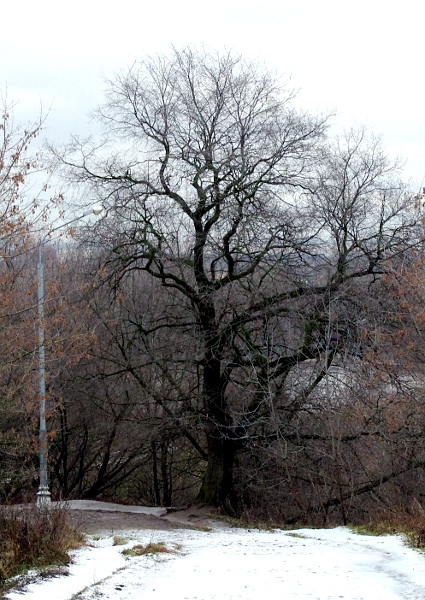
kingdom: Plantae
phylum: Tracheophyta
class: Magnoliopsida
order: Fagales
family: Fagaceae
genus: Quercus
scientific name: Quercus robur
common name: Pedunculate oak
